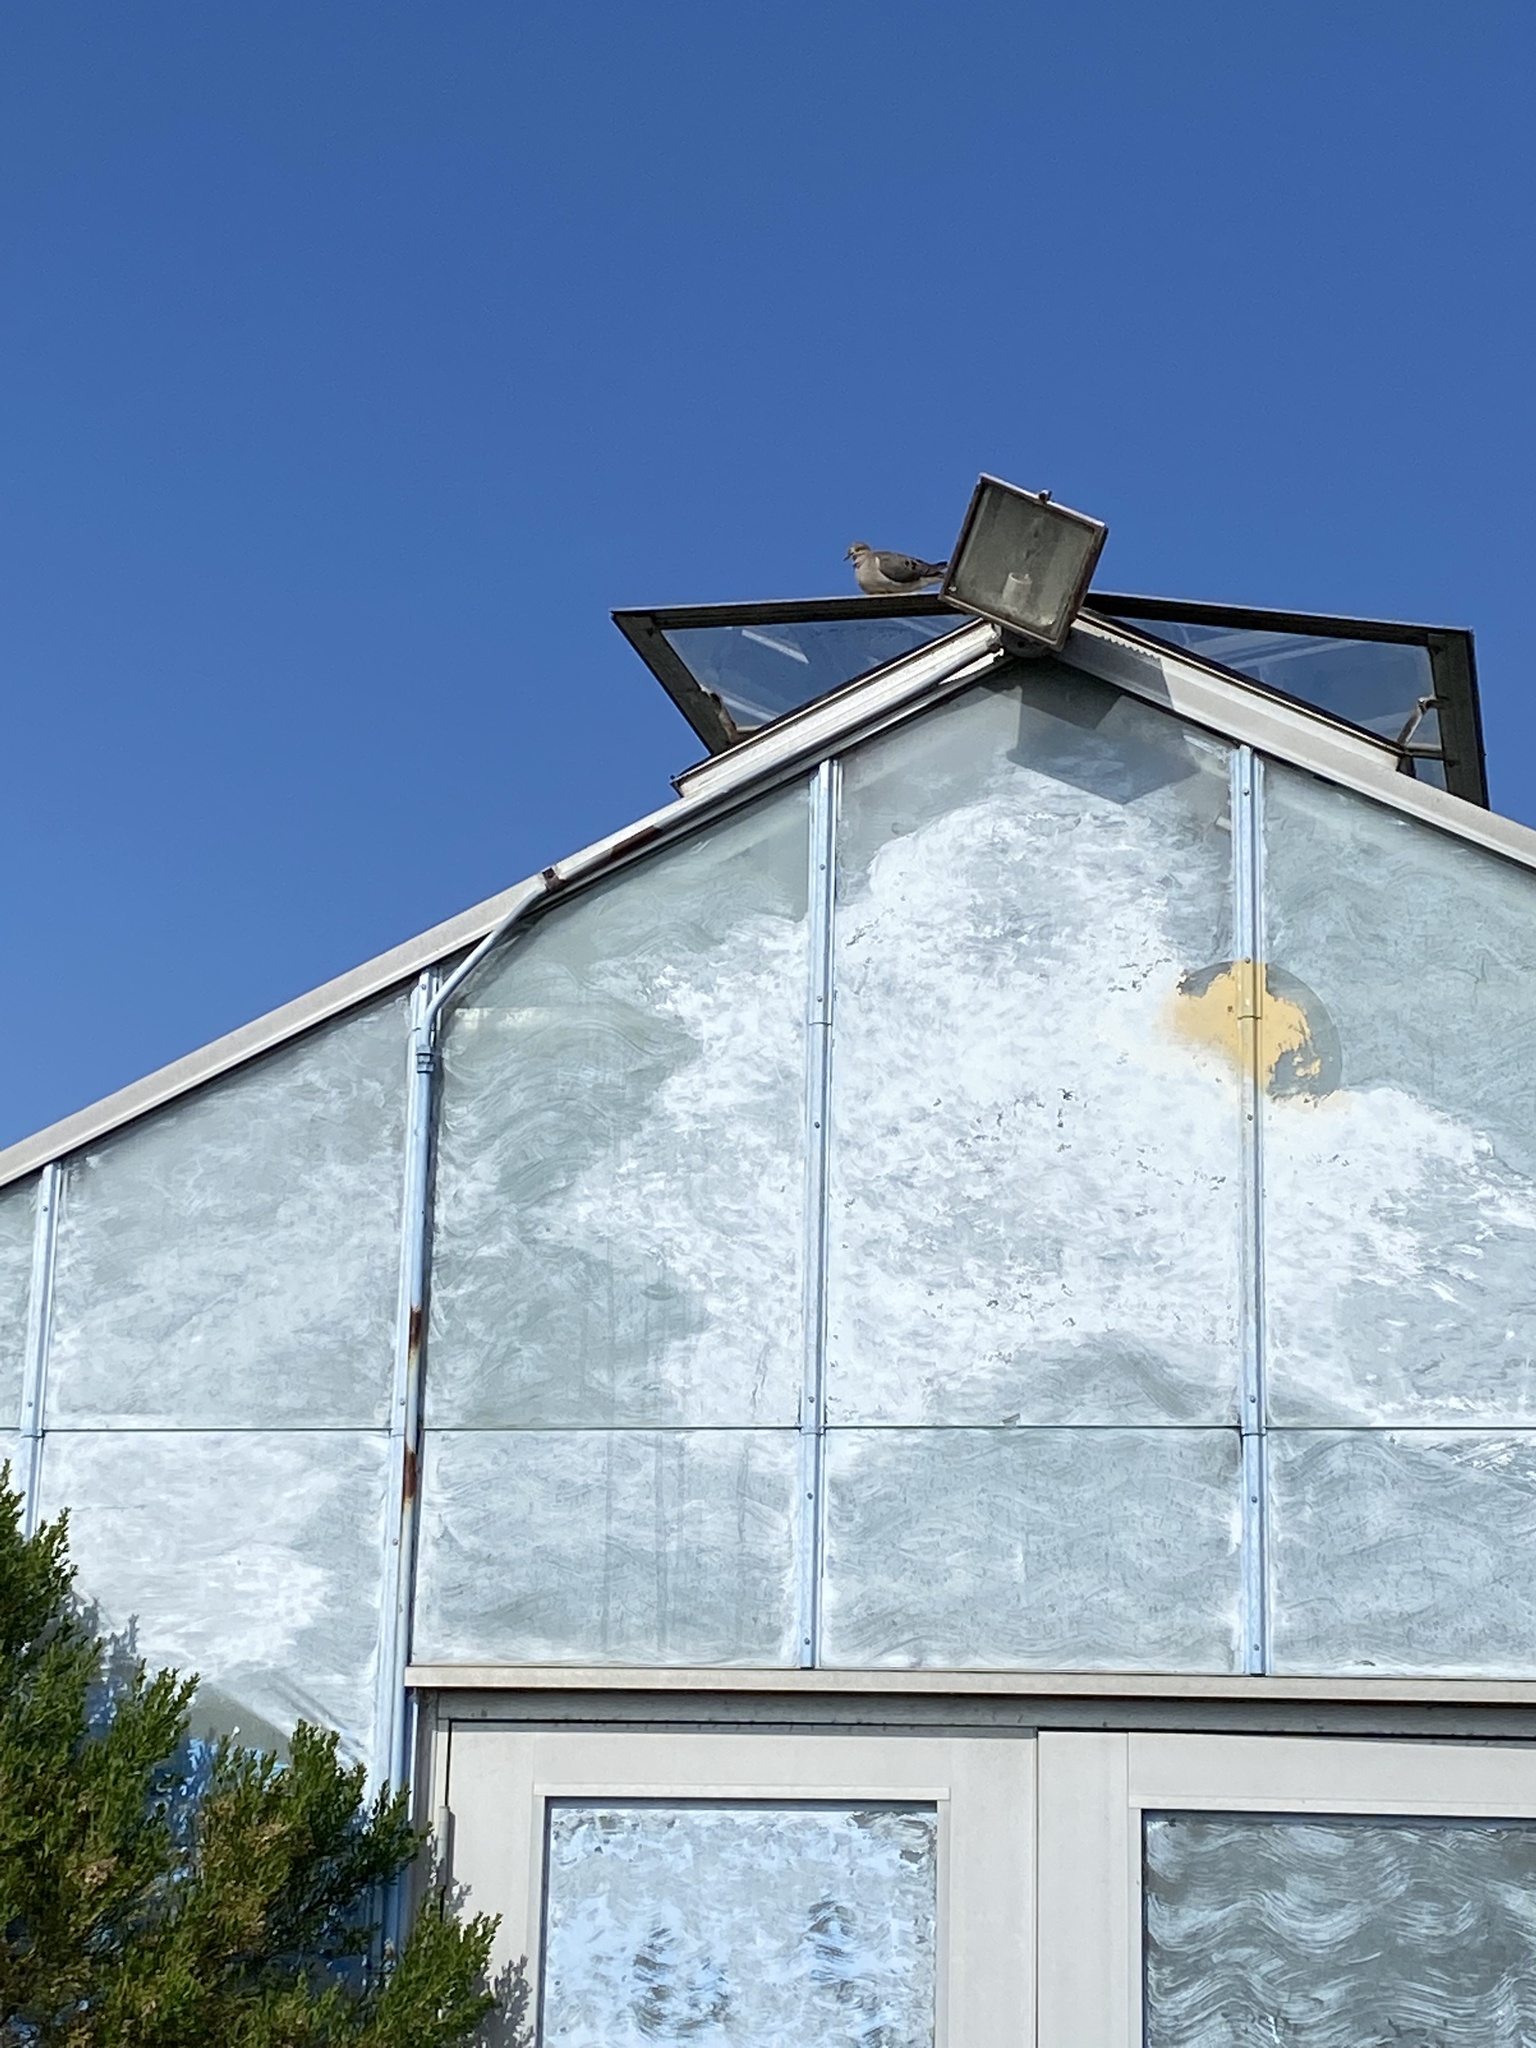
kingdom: Animalia
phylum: Chordata
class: Aves
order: Columbiformes
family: Columbidae
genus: Zenaida
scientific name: Zenaida macroura
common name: Mourning dove
